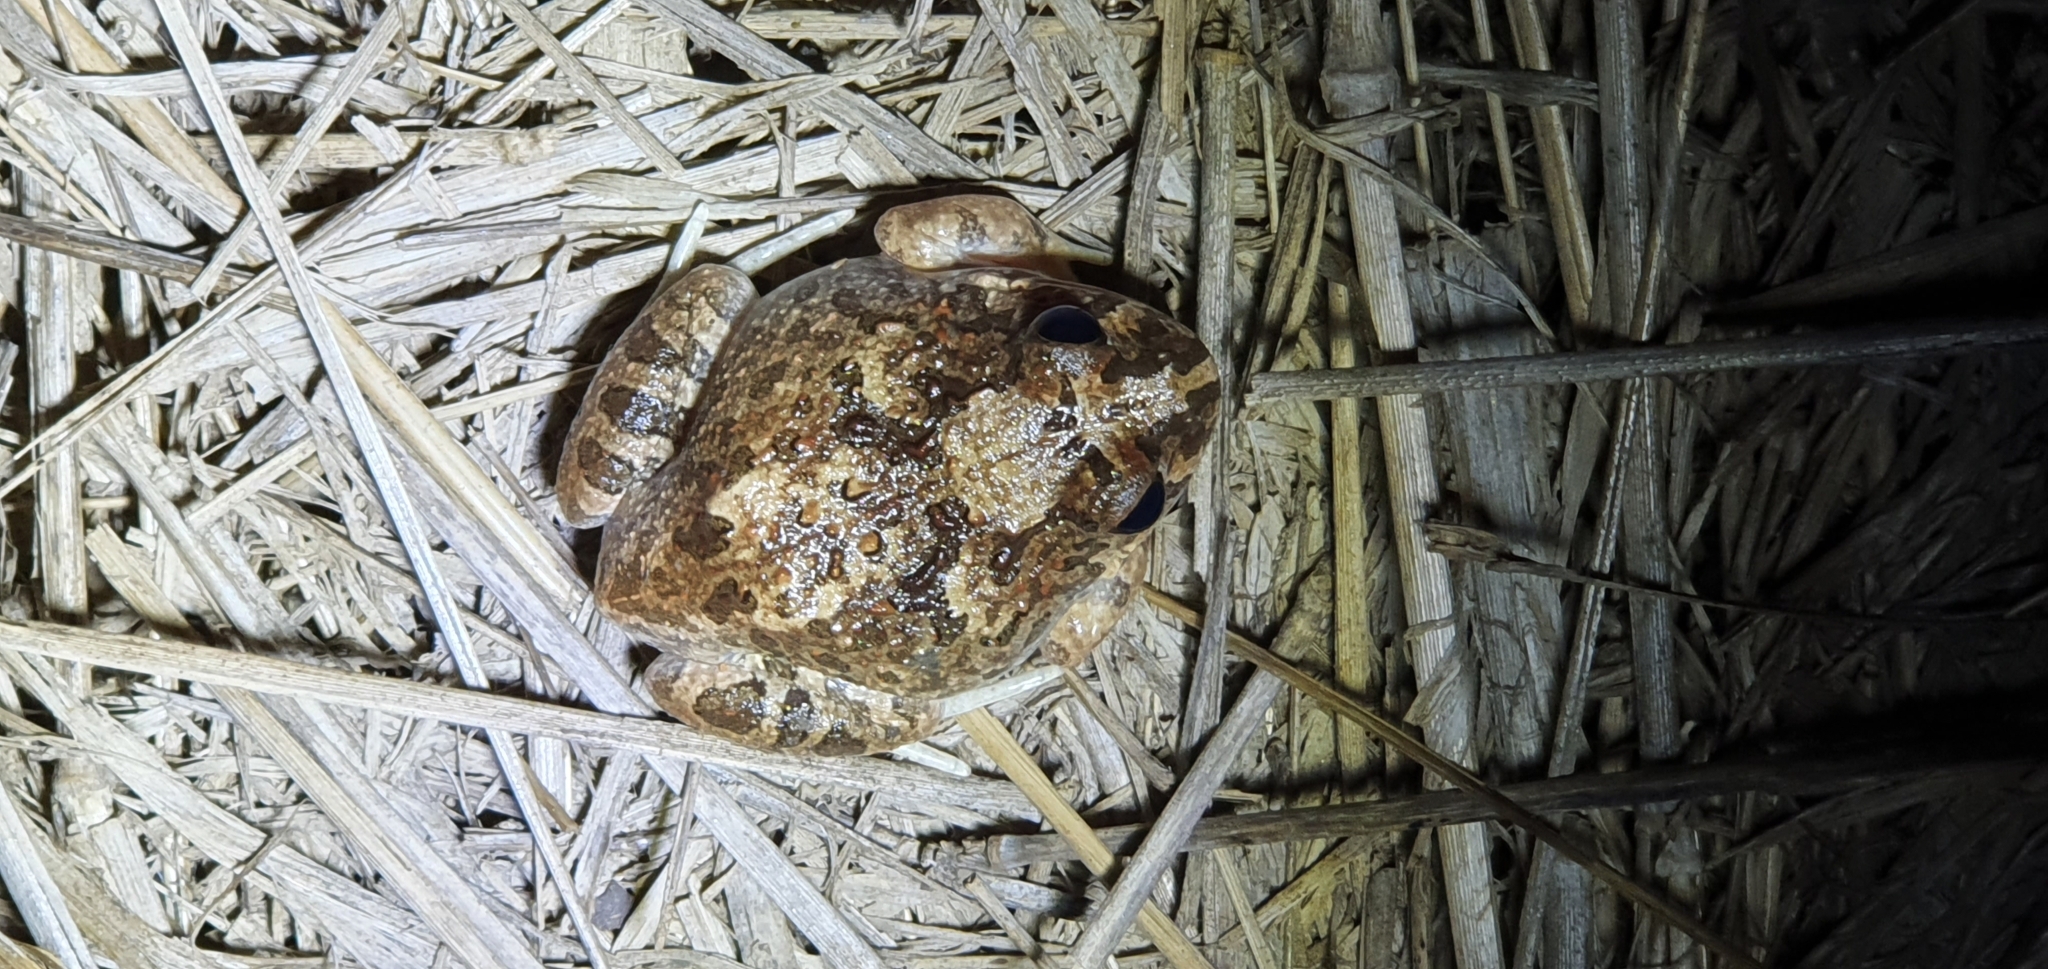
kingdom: Animalia
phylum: Chordata
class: Amphibia
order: Anura
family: Limnodynastidae
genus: Platyplectrum
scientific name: Platyplectrum ornatum
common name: Ornate burrowing frog
